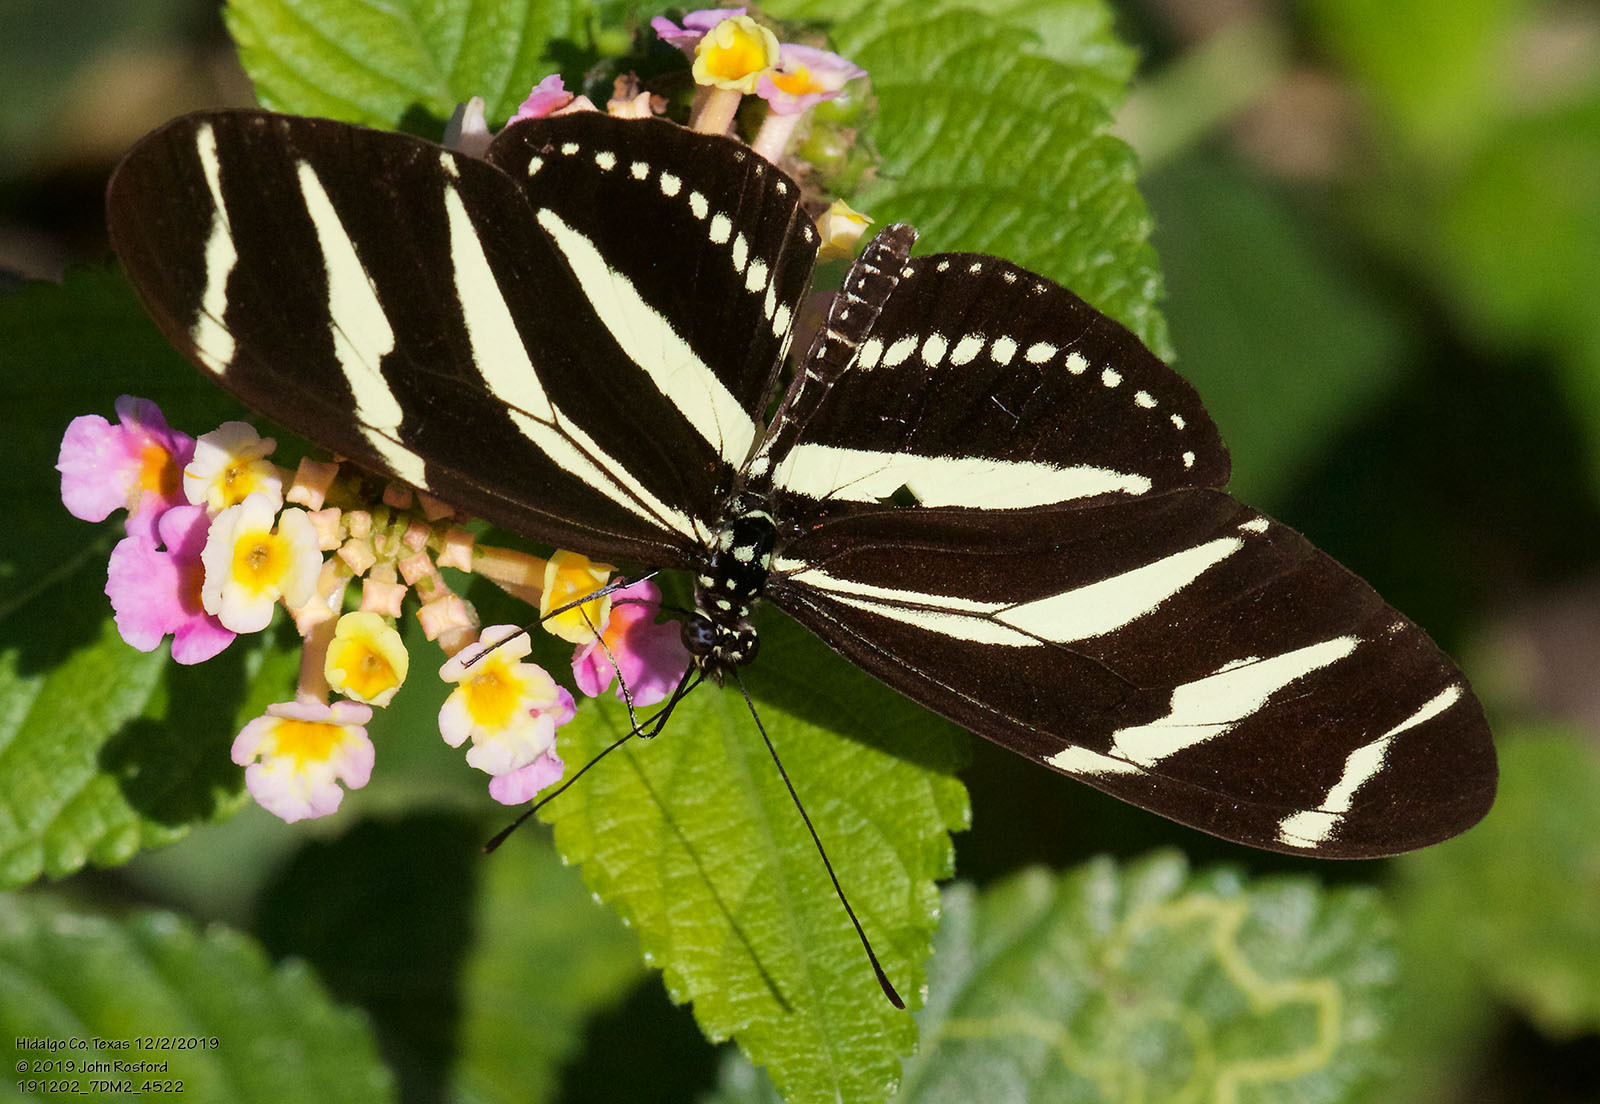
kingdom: Animalia
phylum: Arthropoda
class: Insecta
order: Lepidoptera
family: Nymphalidae
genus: Heliconius
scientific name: Heliconius charithonia
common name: Zebra long wing
